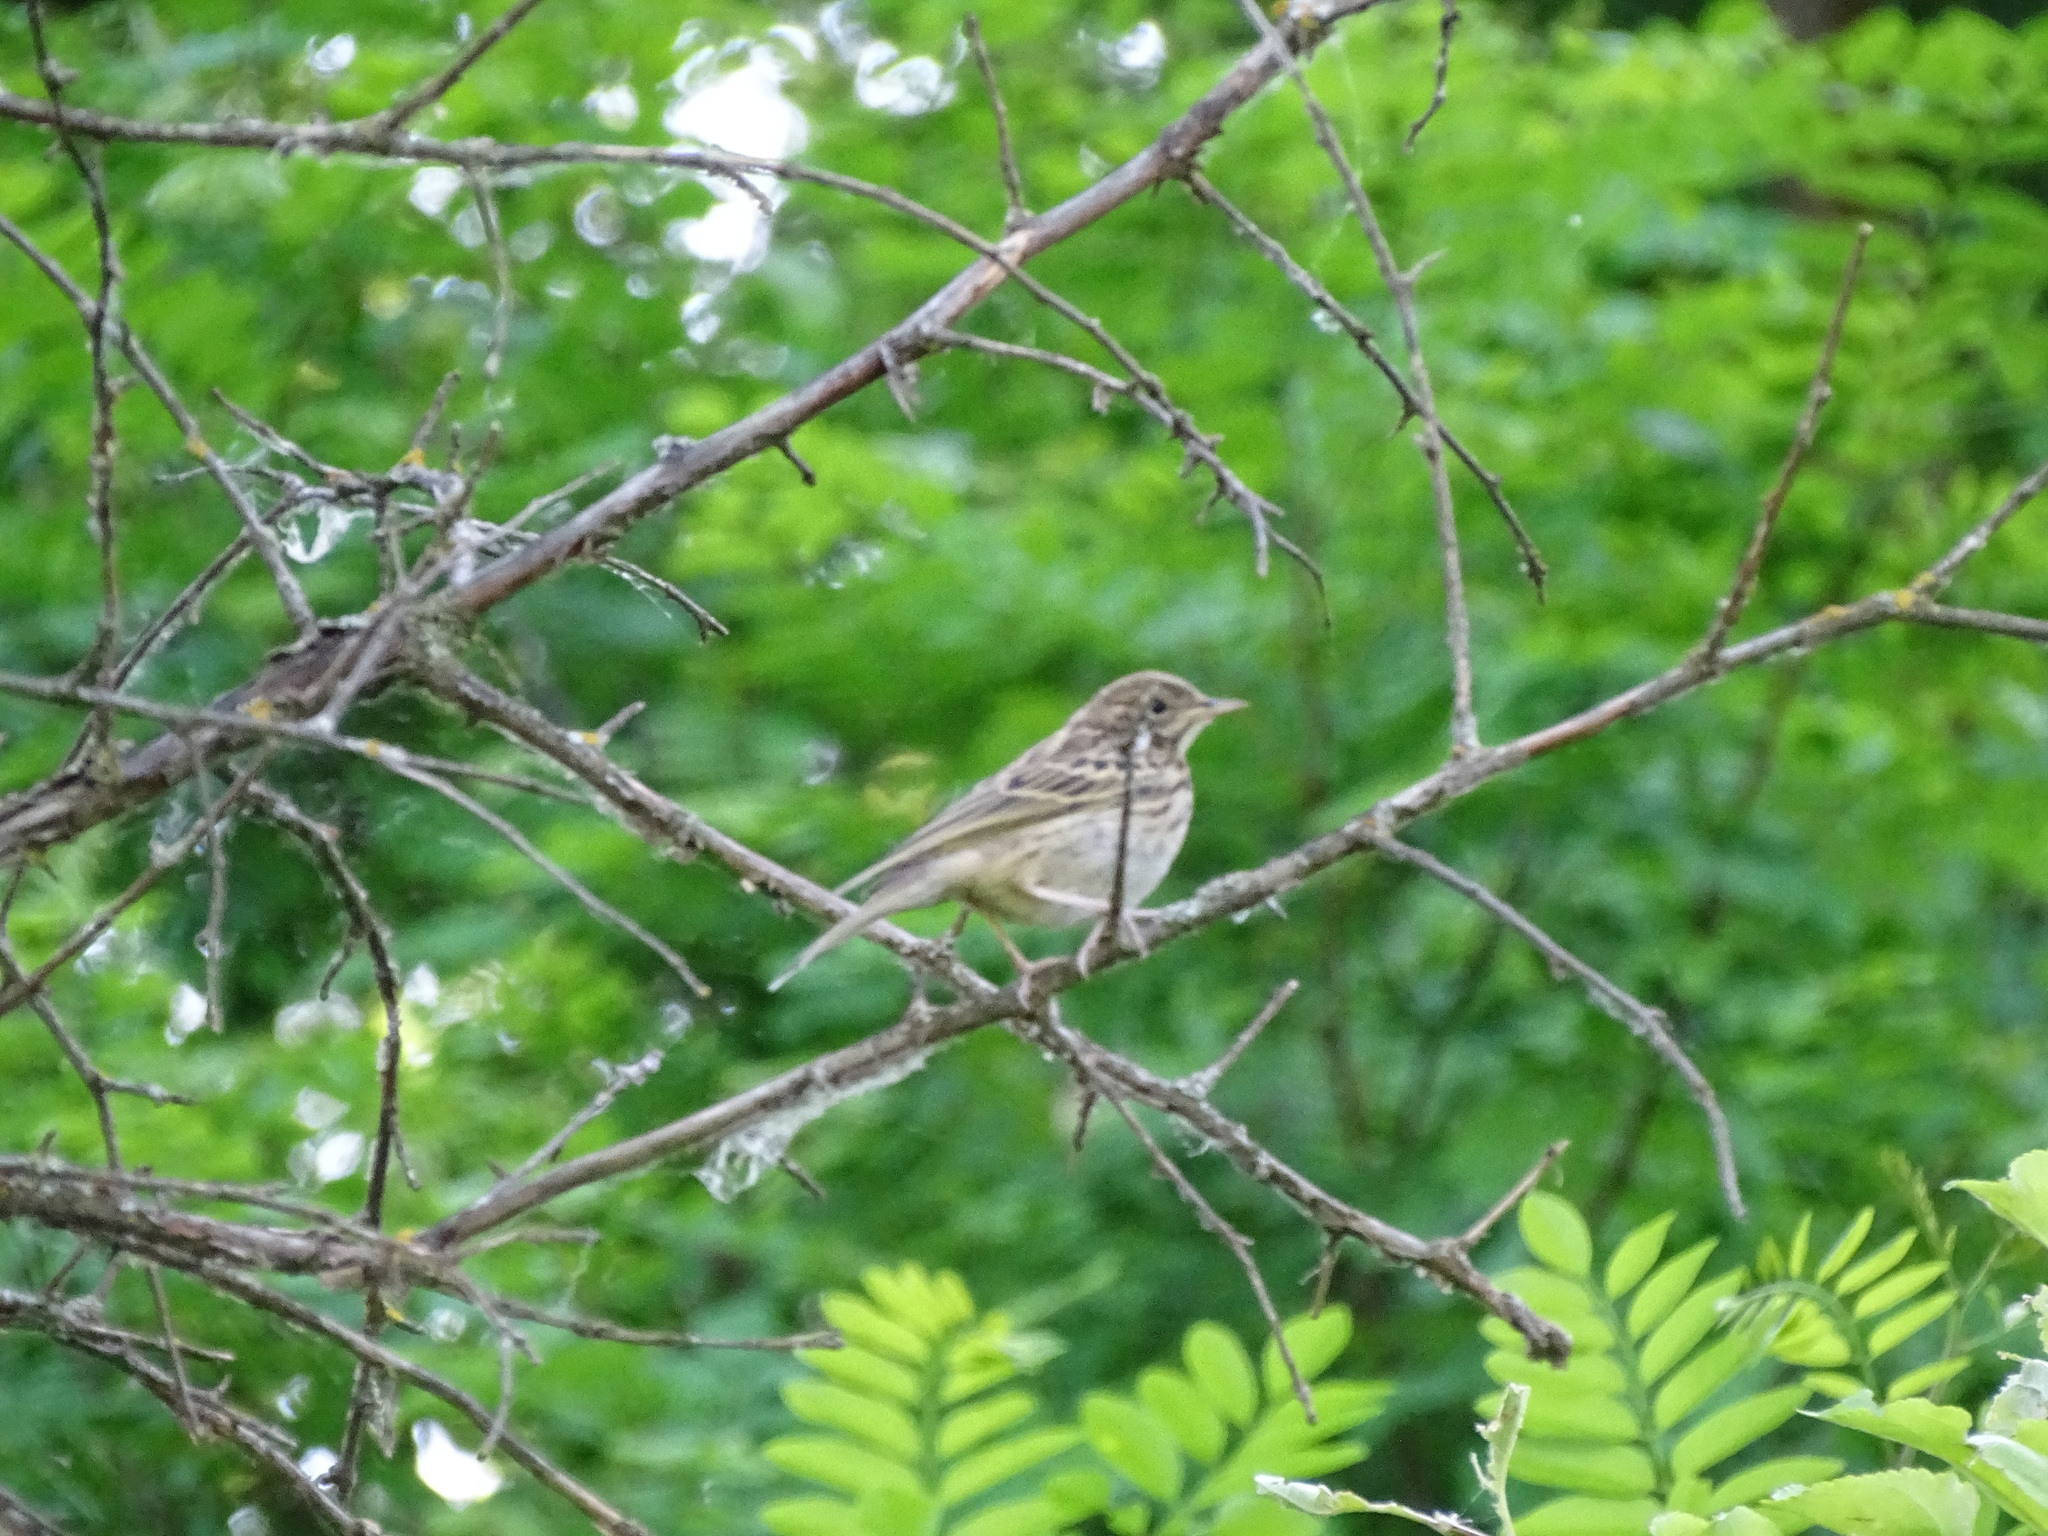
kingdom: Animalia
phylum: Chordata
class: Aves
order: Passeriformes
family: Motacillidae
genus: Anthus
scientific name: Anthus trivialis
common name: Tree pipit
